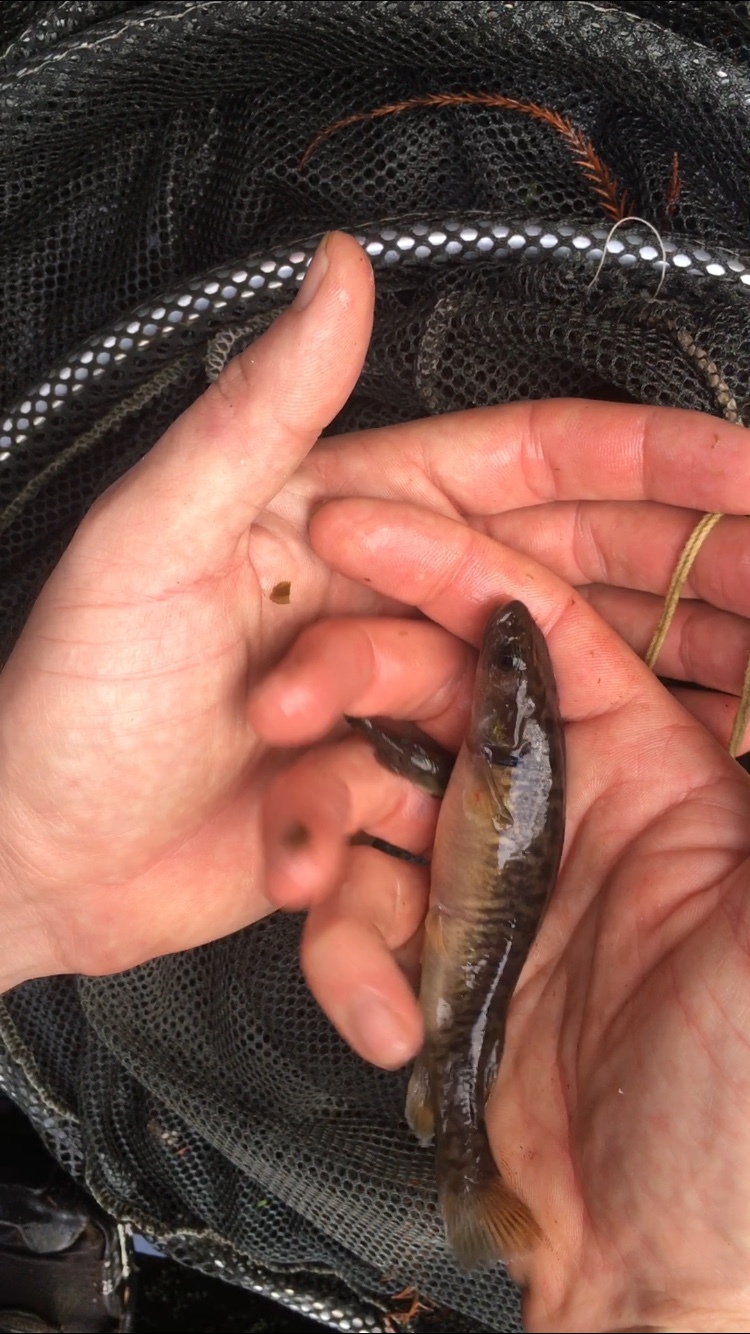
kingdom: Animalia
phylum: Chordata
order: Osmeriformes
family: Galaxiidae
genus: Galaxias
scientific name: Galaxias fasciatus
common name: Banded kokopu
